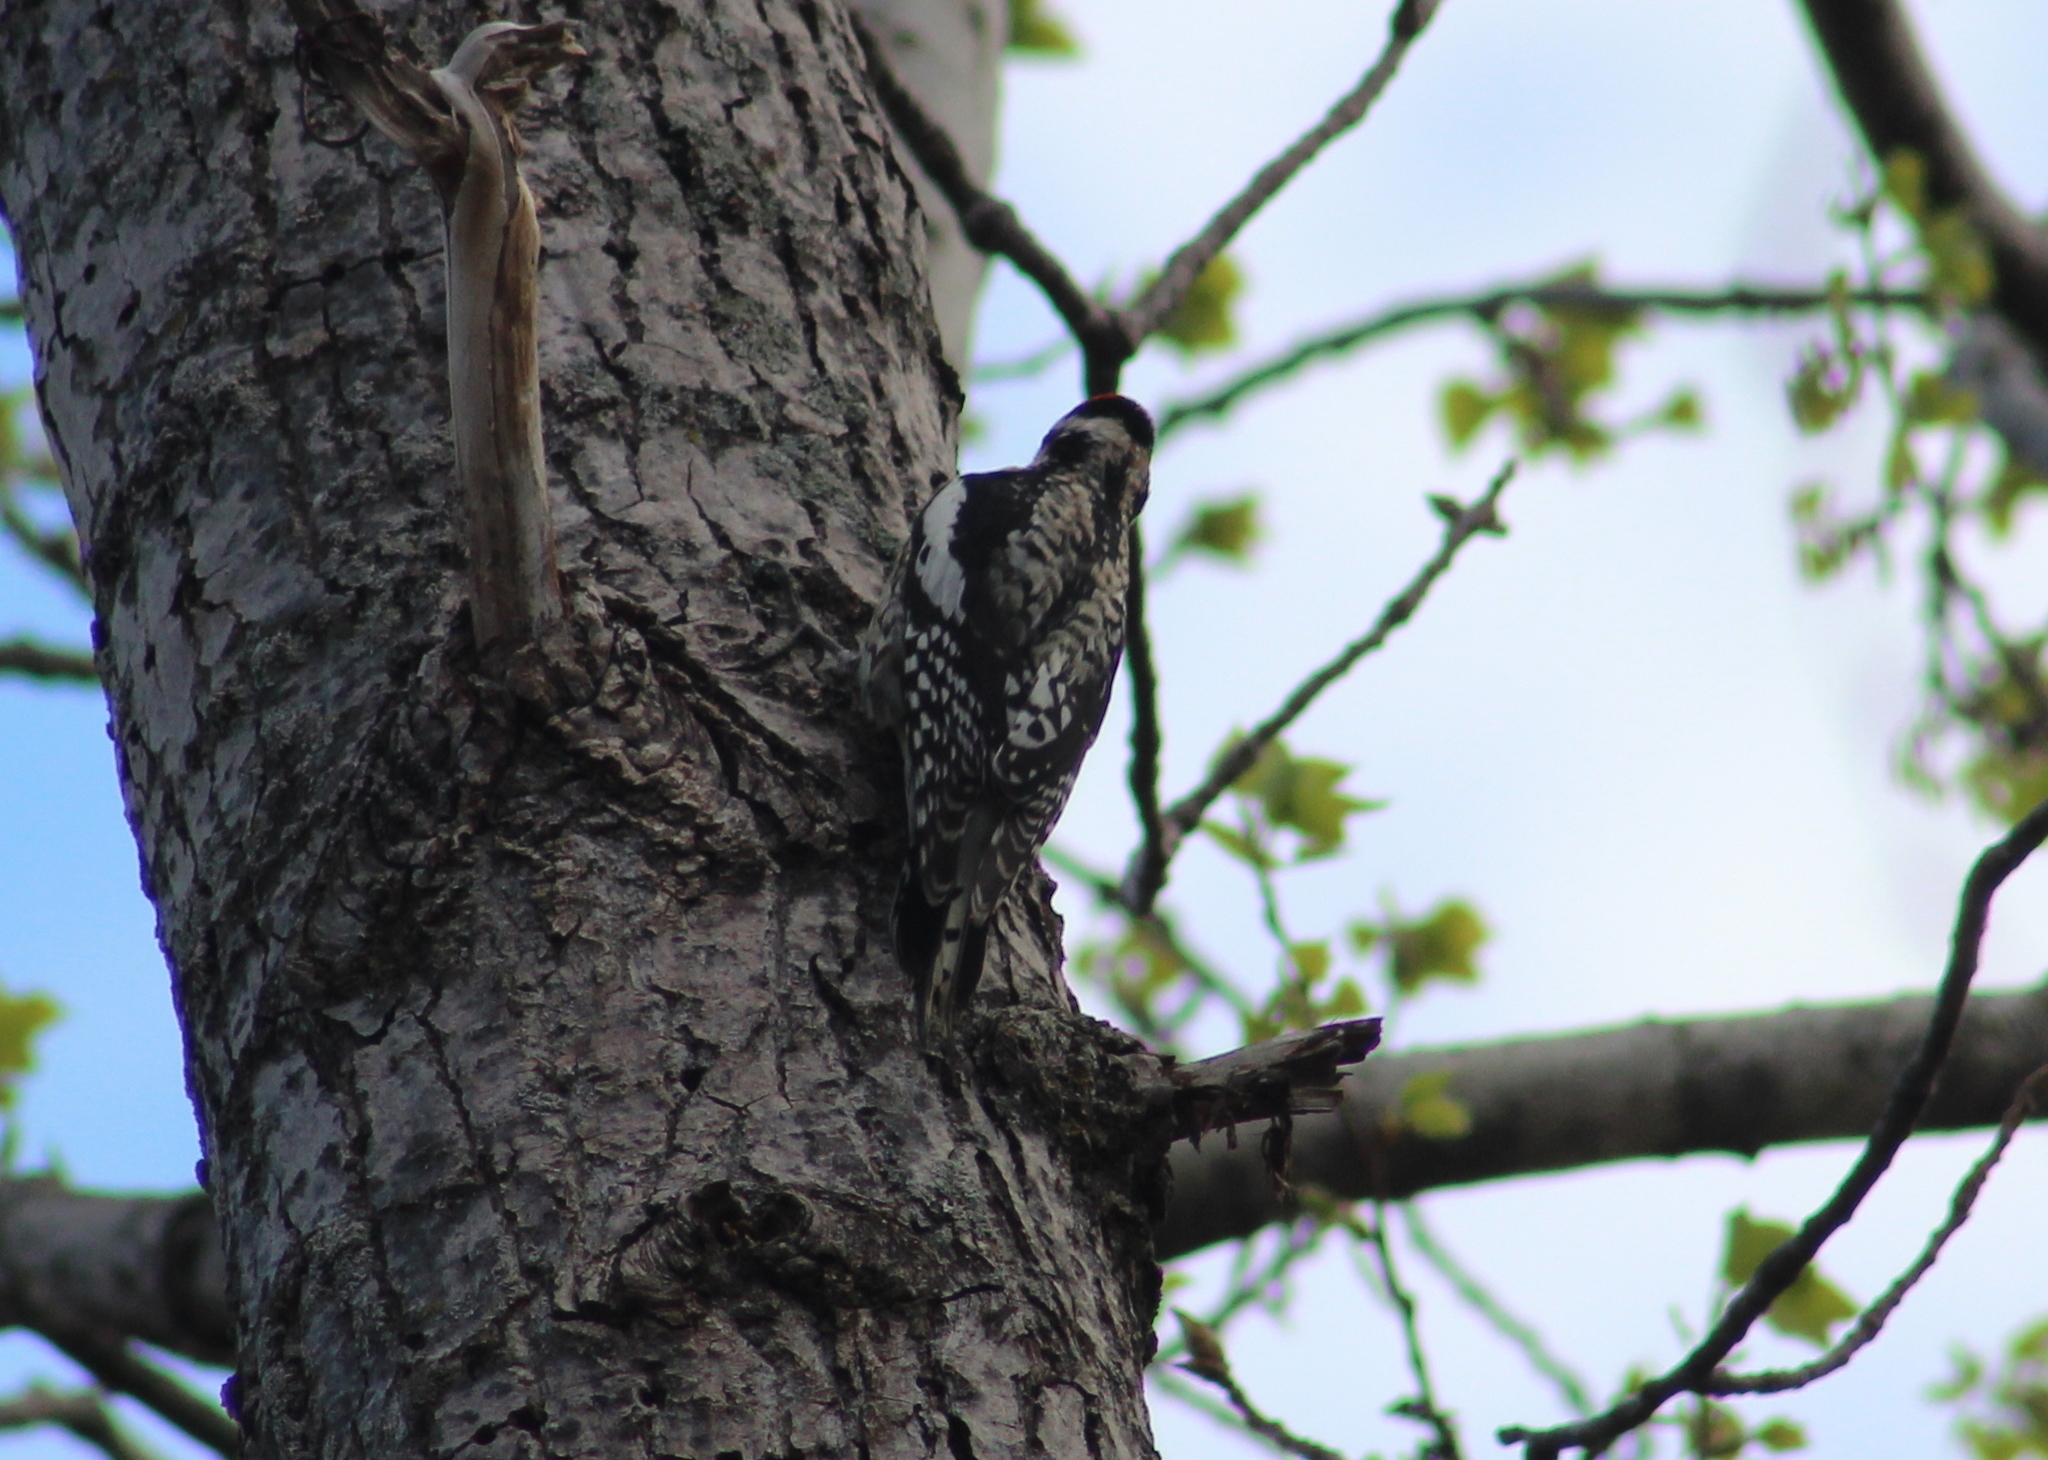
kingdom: Animalia
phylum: Chordata
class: Aves
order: Piciformes
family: Picidae
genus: Sphyrapicus
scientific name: Sphyrapicus varius
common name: Yellow-bellied sapsucker
